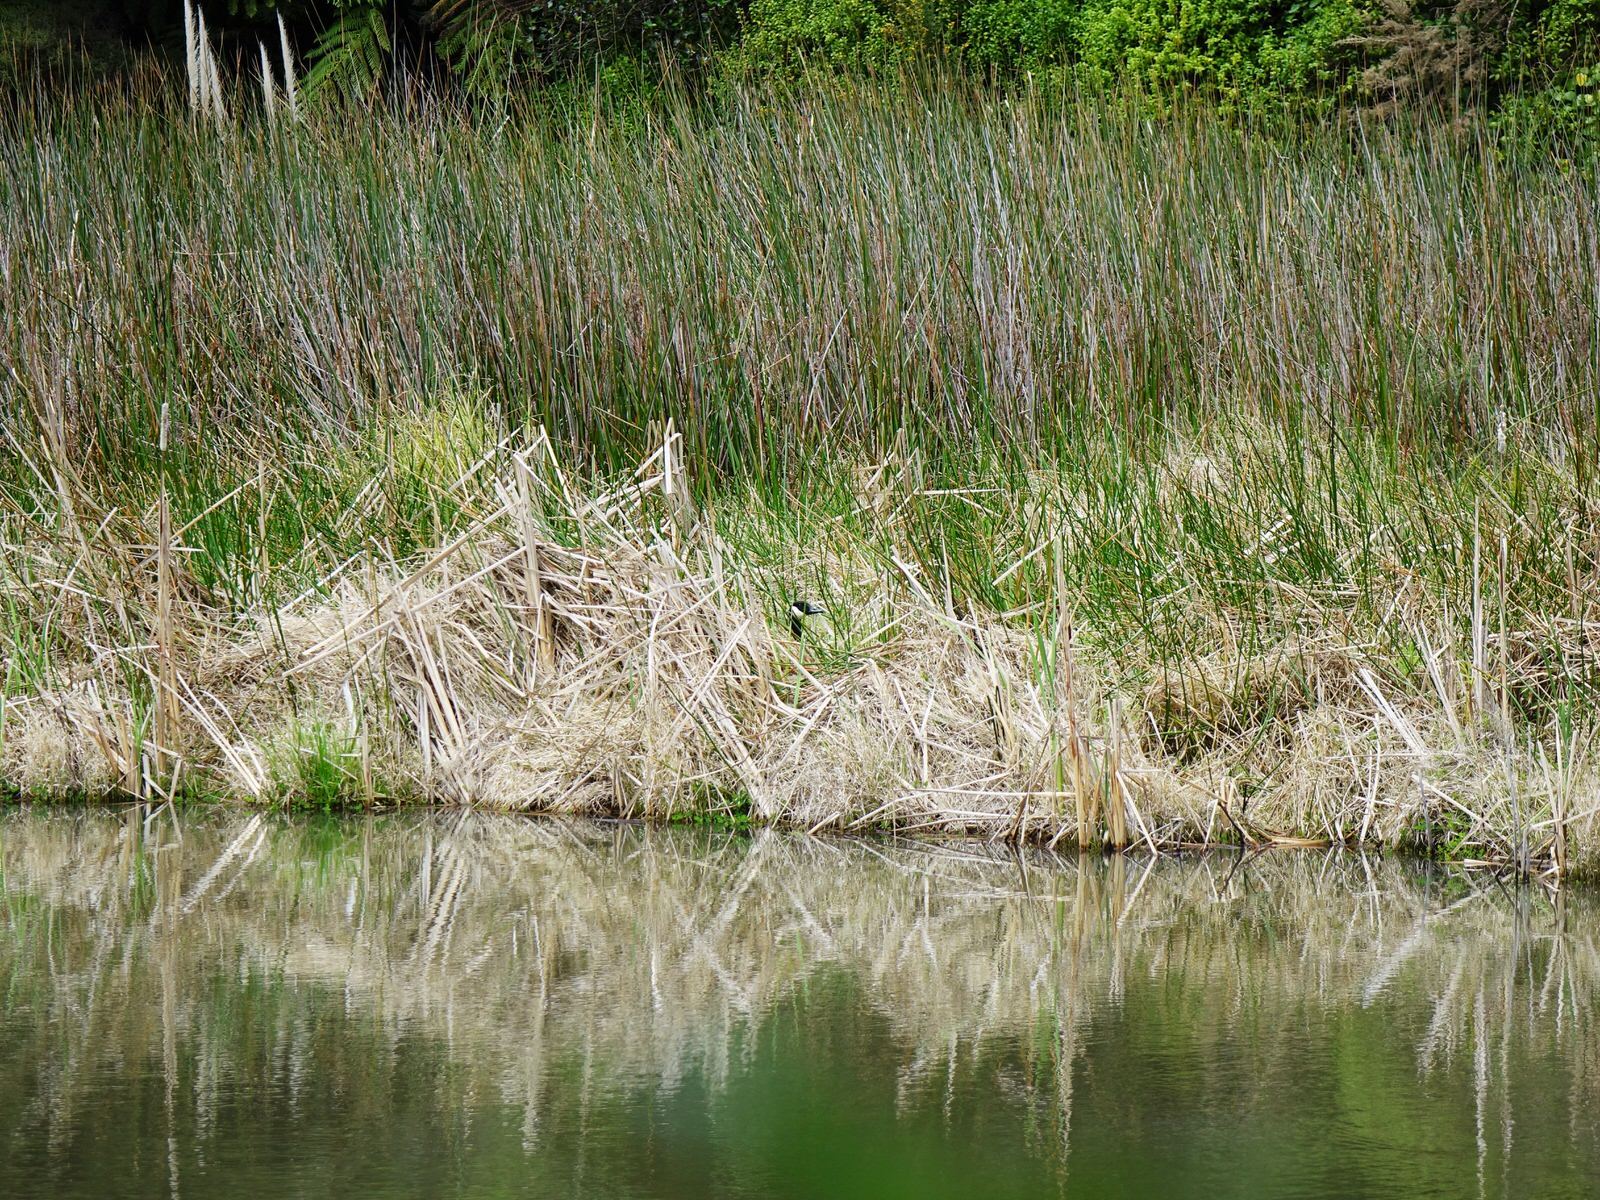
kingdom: Animalia
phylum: Chordata
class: Aves
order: Anseriformes
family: Anatidae
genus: Branta
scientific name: Branta canadensis
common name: Canada goose
